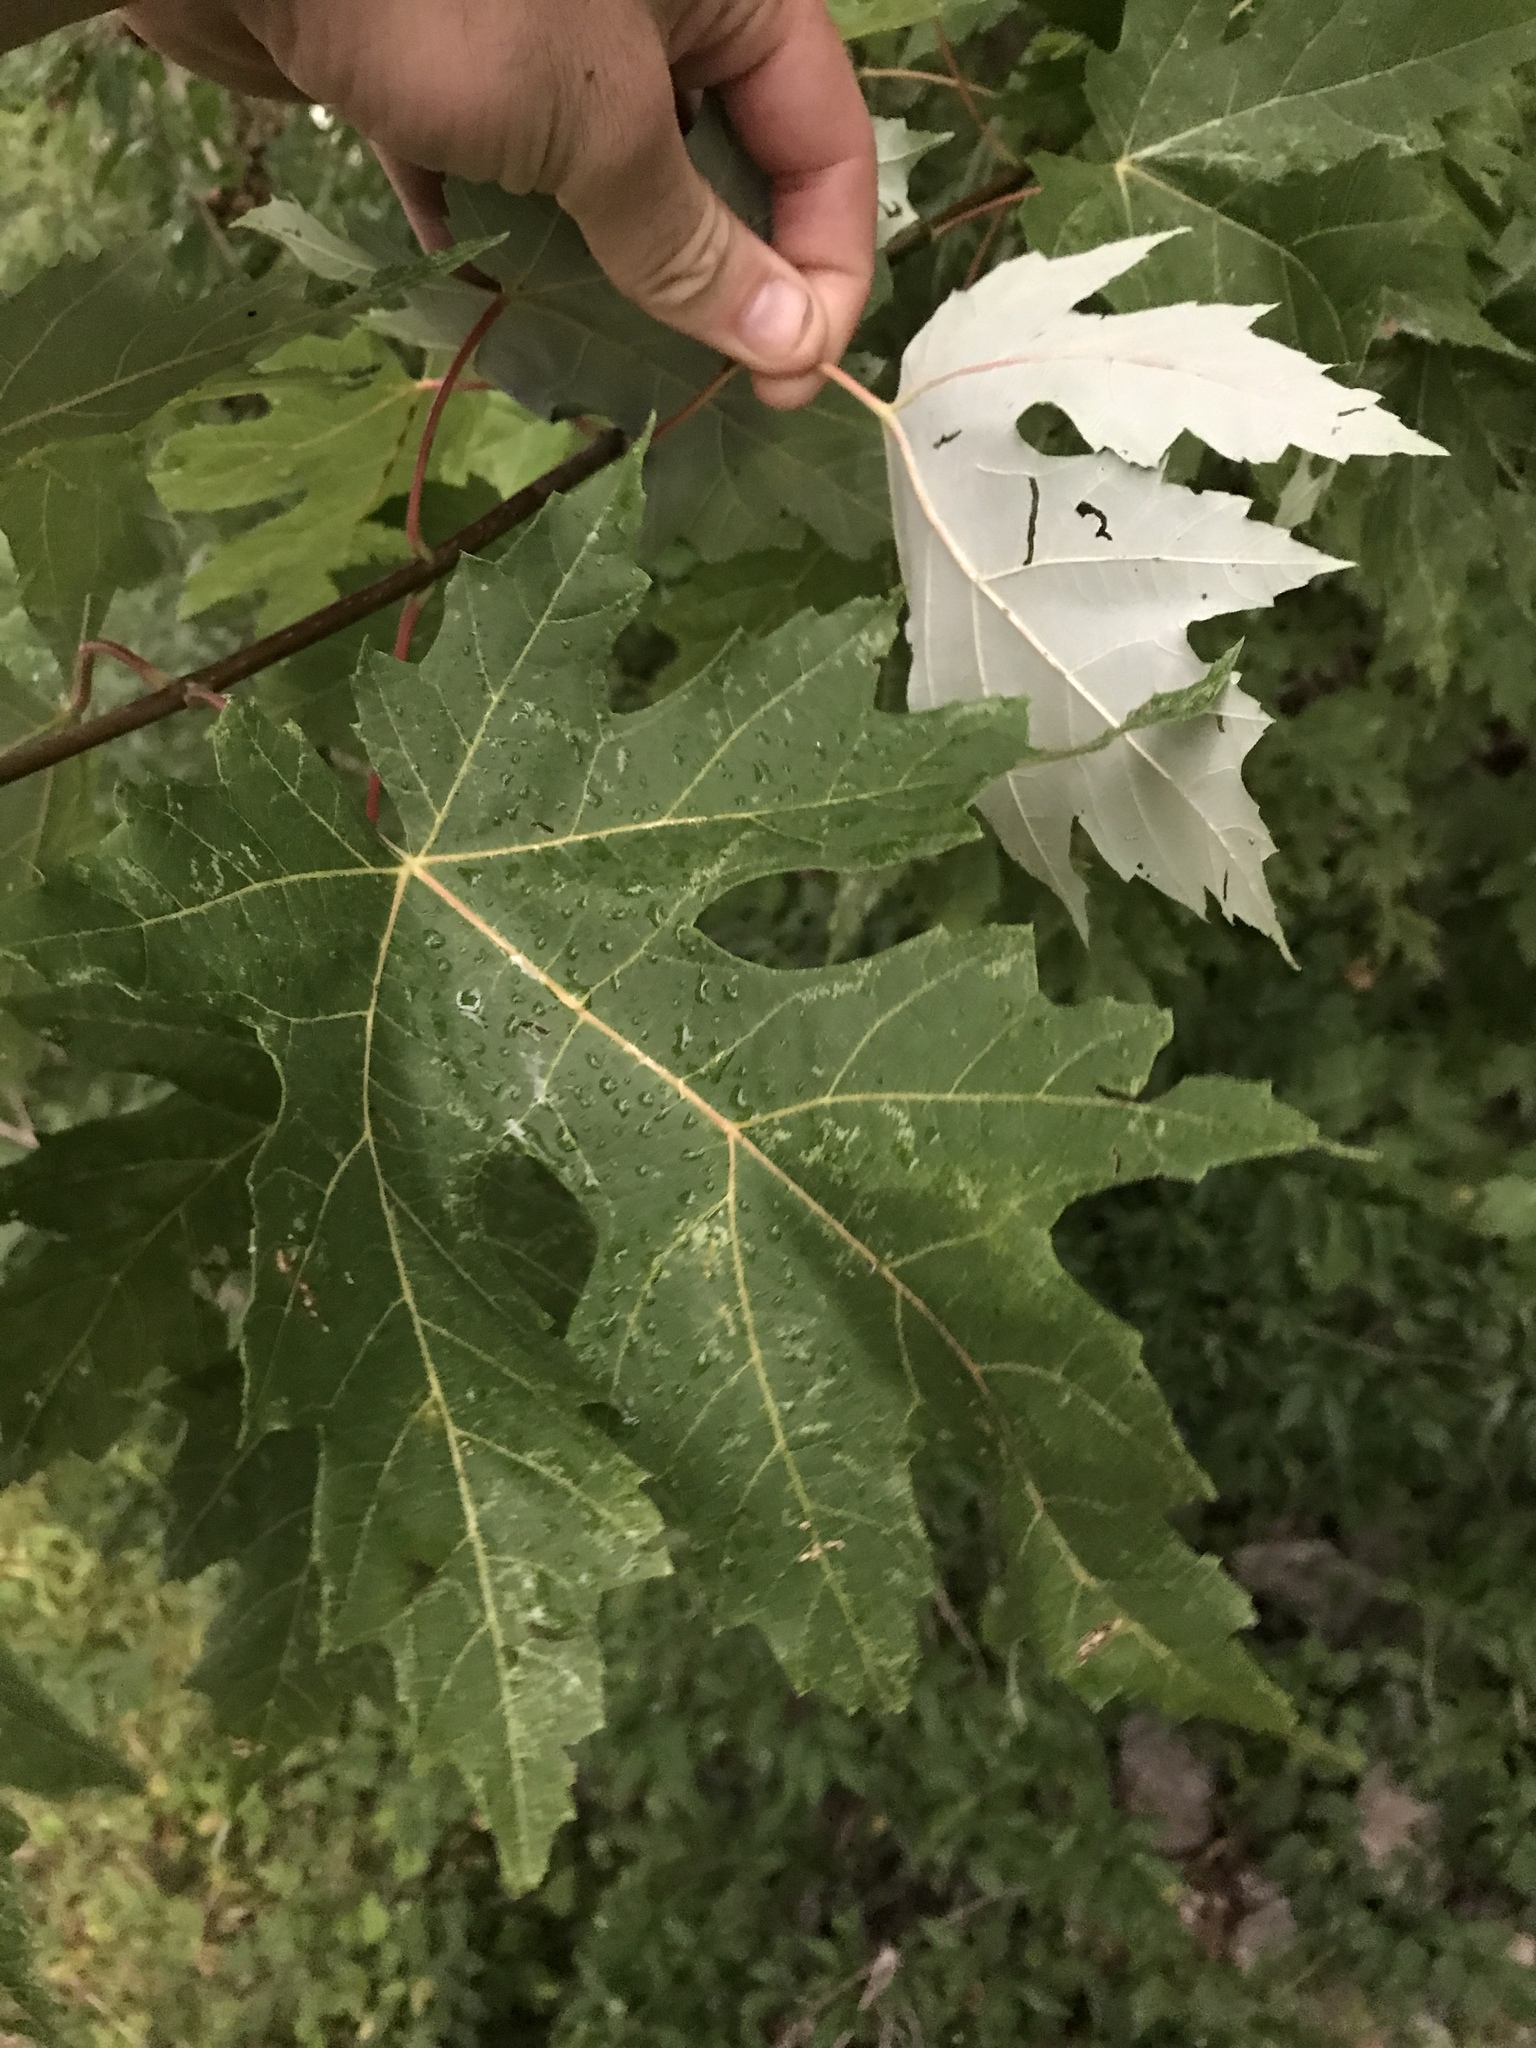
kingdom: Plantae
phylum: Tracheophyta
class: Magnoliopsida
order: Sapindales
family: Sapindaceae
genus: Acer
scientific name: Acer saccharinum
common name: Silver maple
